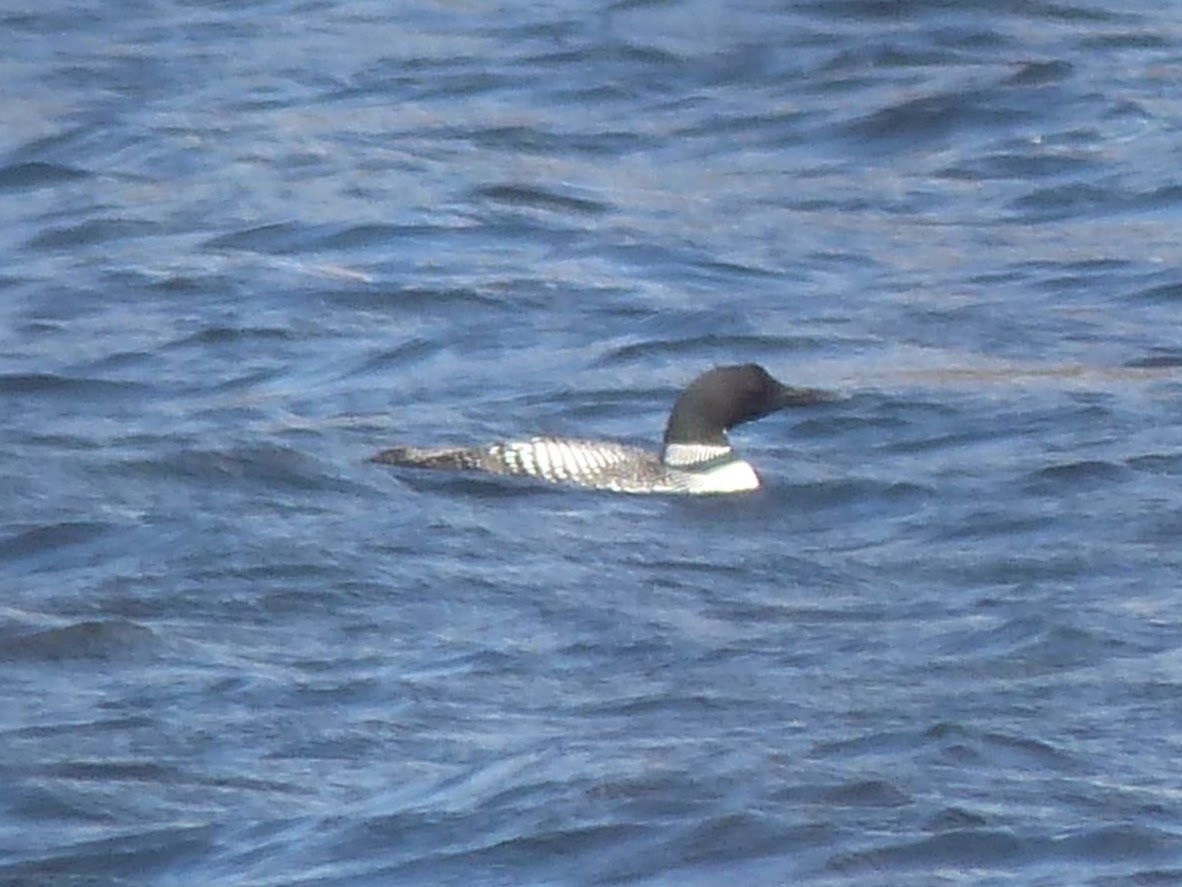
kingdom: Animalia
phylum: Chordata
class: Aves
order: Gaviiformes
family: Gaviidae
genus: Gavia
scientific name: Gavia immer
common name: Common loon
